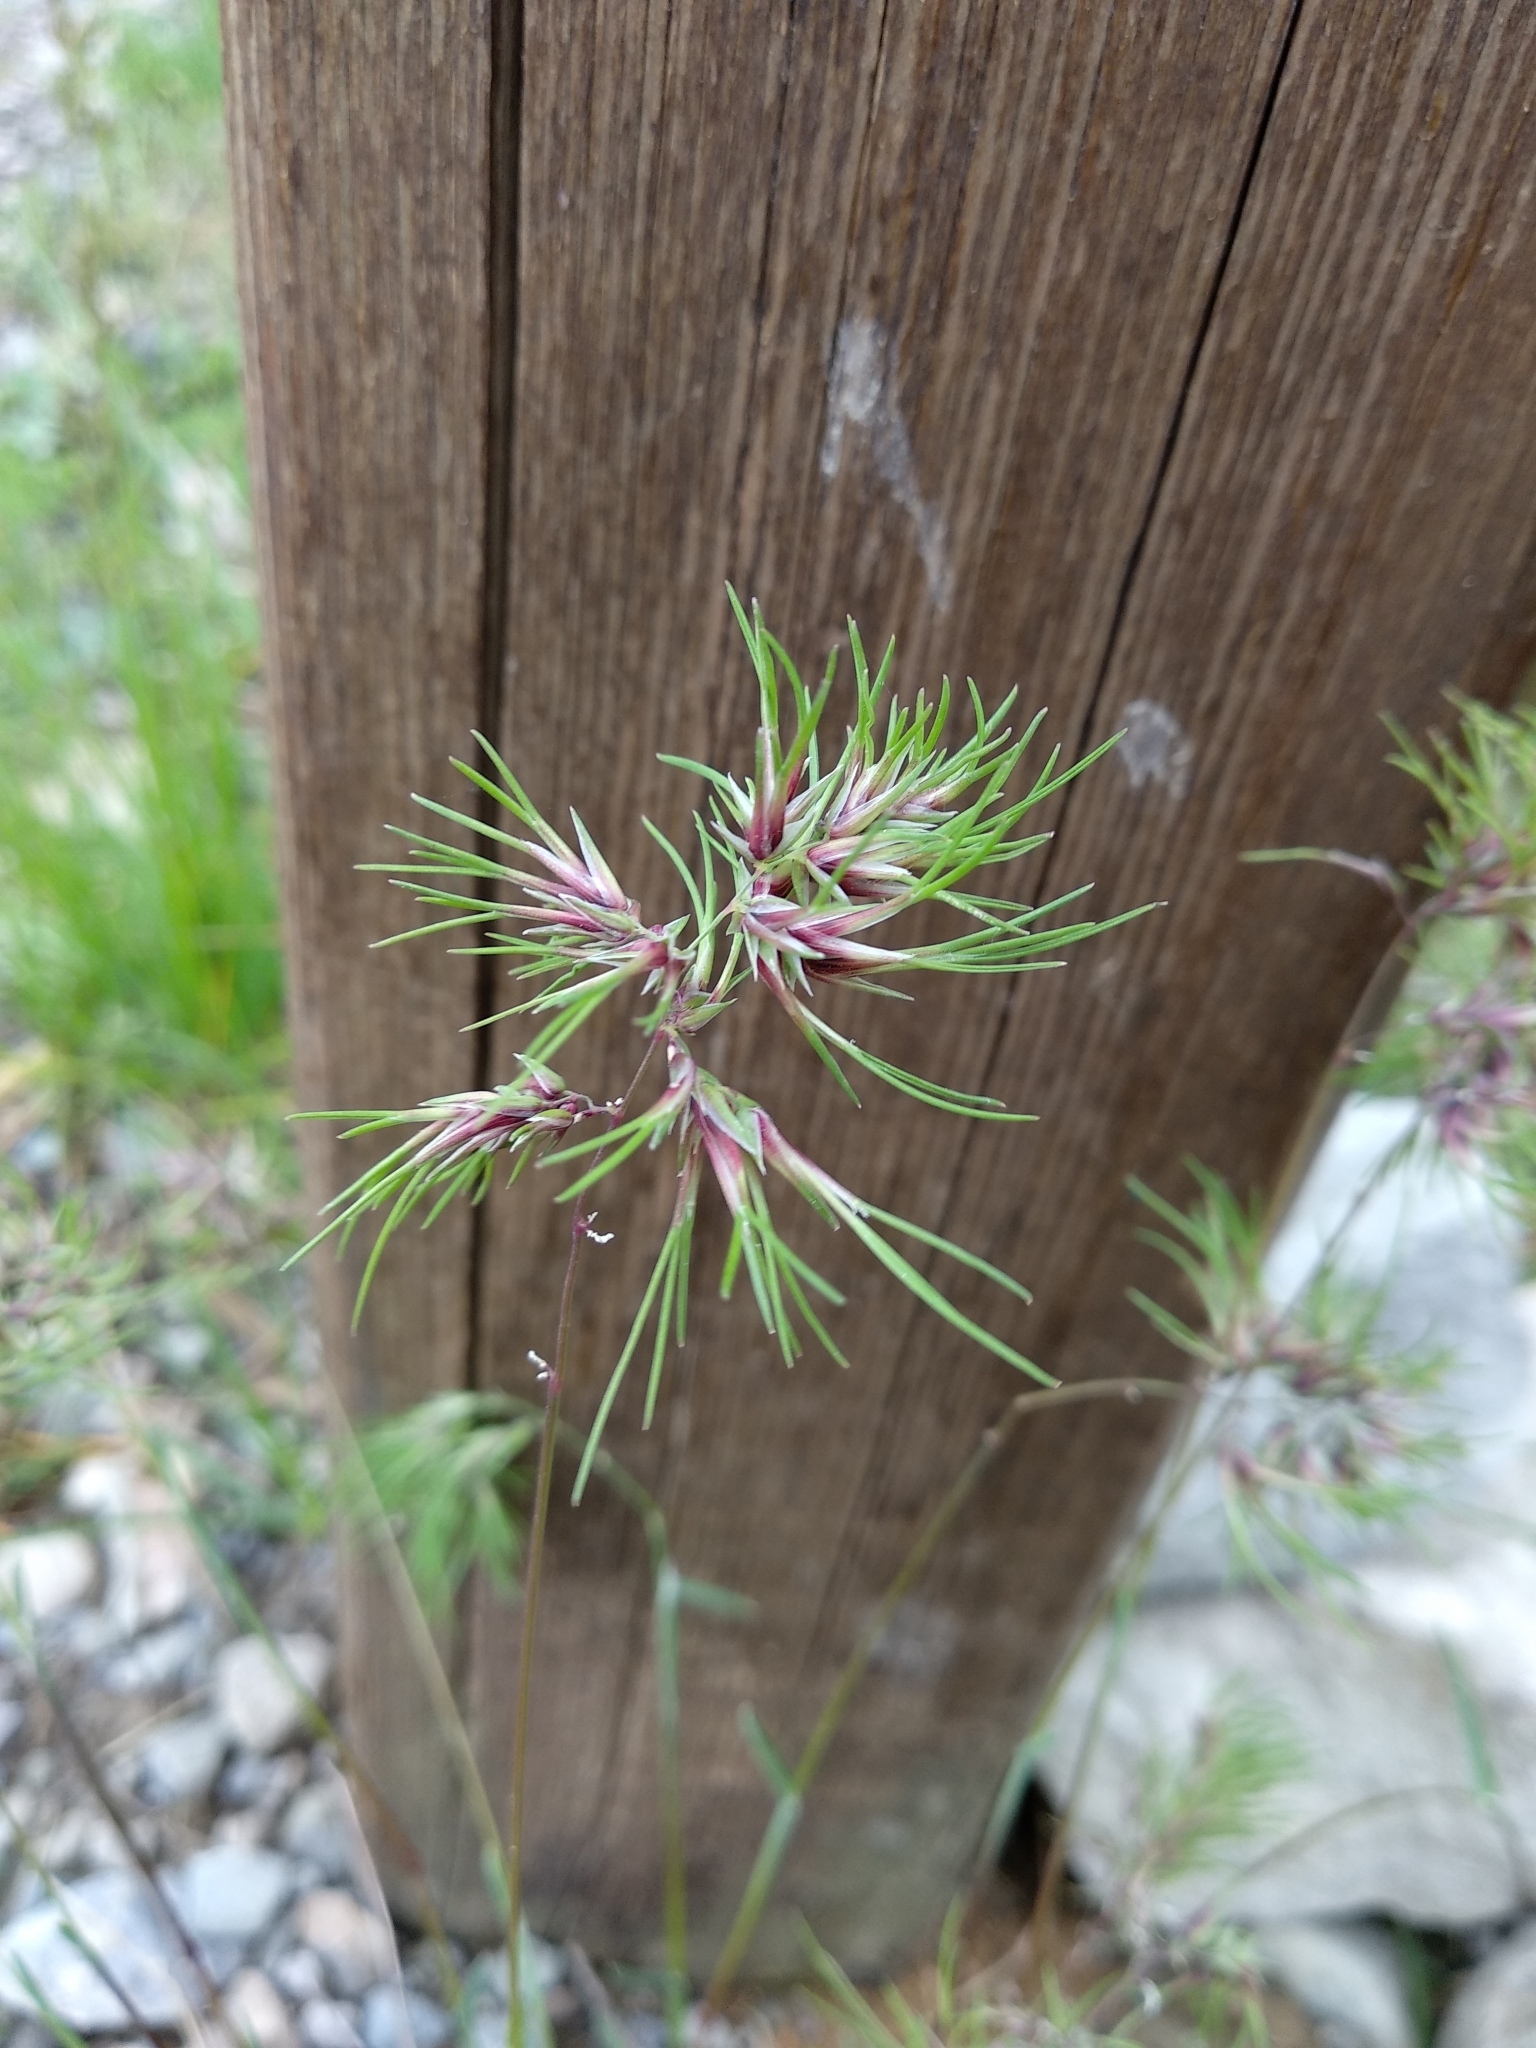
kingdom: Plantae
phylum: Tracheophyta
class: Liliopsida
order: Poales
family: Poaceae
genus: Poa
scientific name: Poa bulbosa
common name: Bulbous bluegrass
